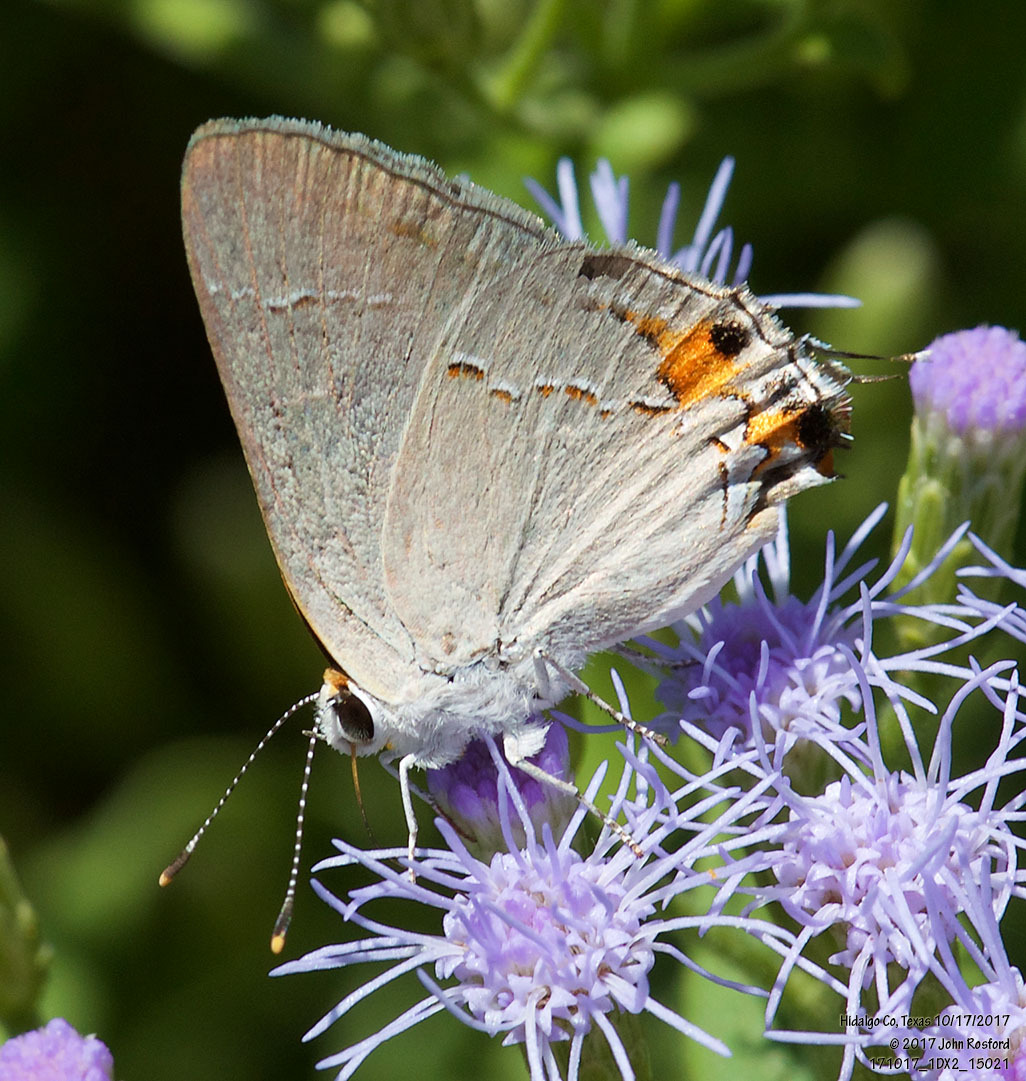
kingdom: Animalia
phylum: Arthropoda
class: Insecta
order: Lepidoptera
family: Lycaenidae
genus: Strymon
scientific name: Strymon melinus
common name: Gray hairstreak
